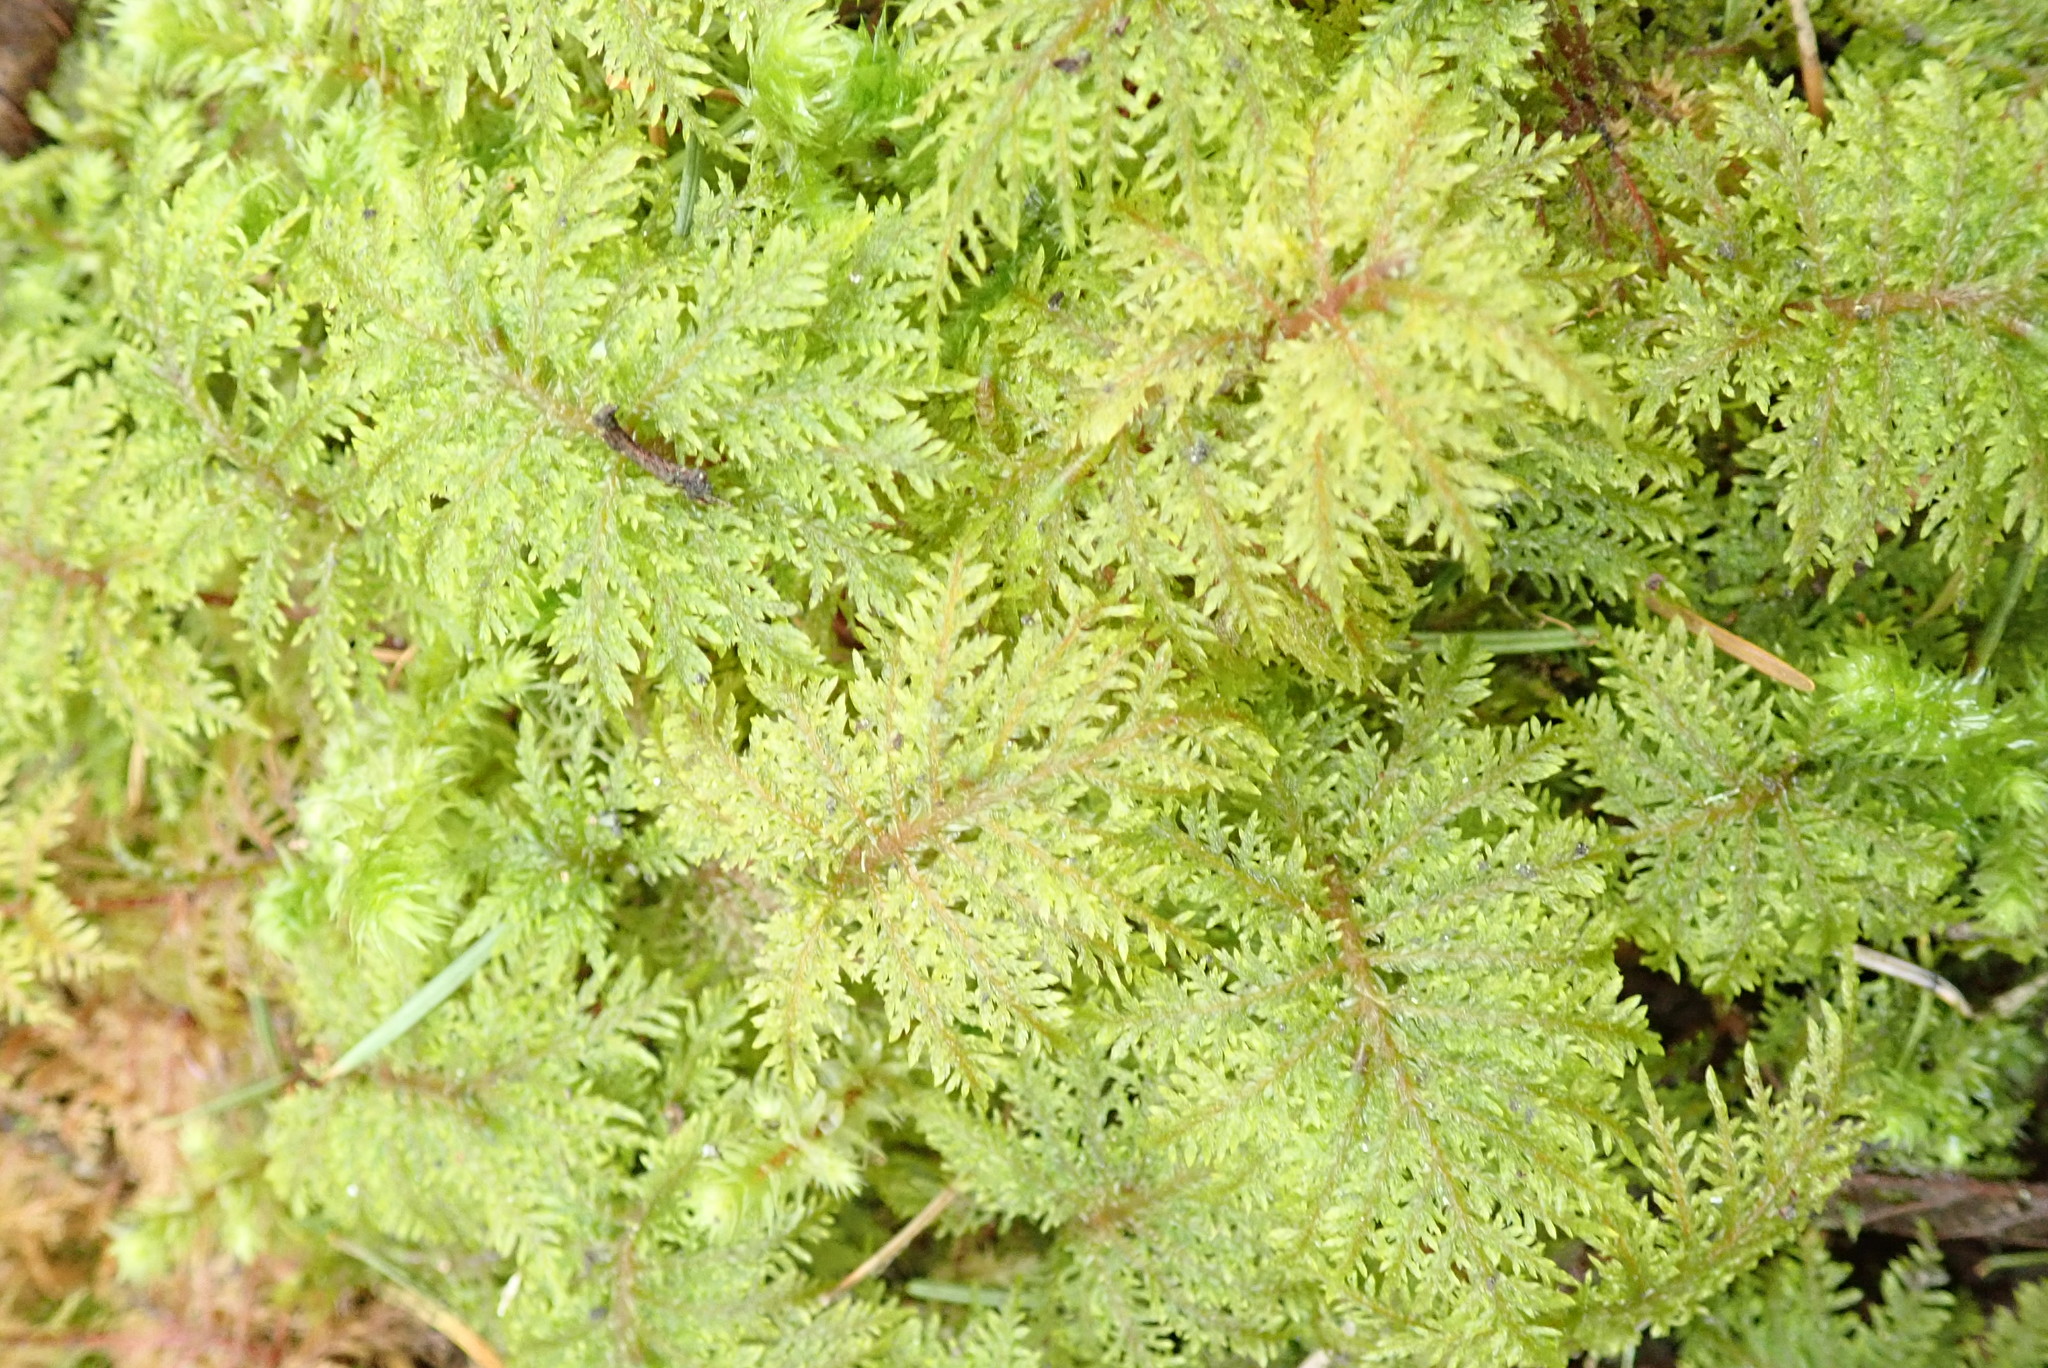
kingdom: Plantae
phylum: Bryophyta
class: Bryopsida
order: Hypnales
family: Hylocomiaceae
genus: Hylocomium
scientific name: Hylocomium splendens
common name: Stairstep moss
